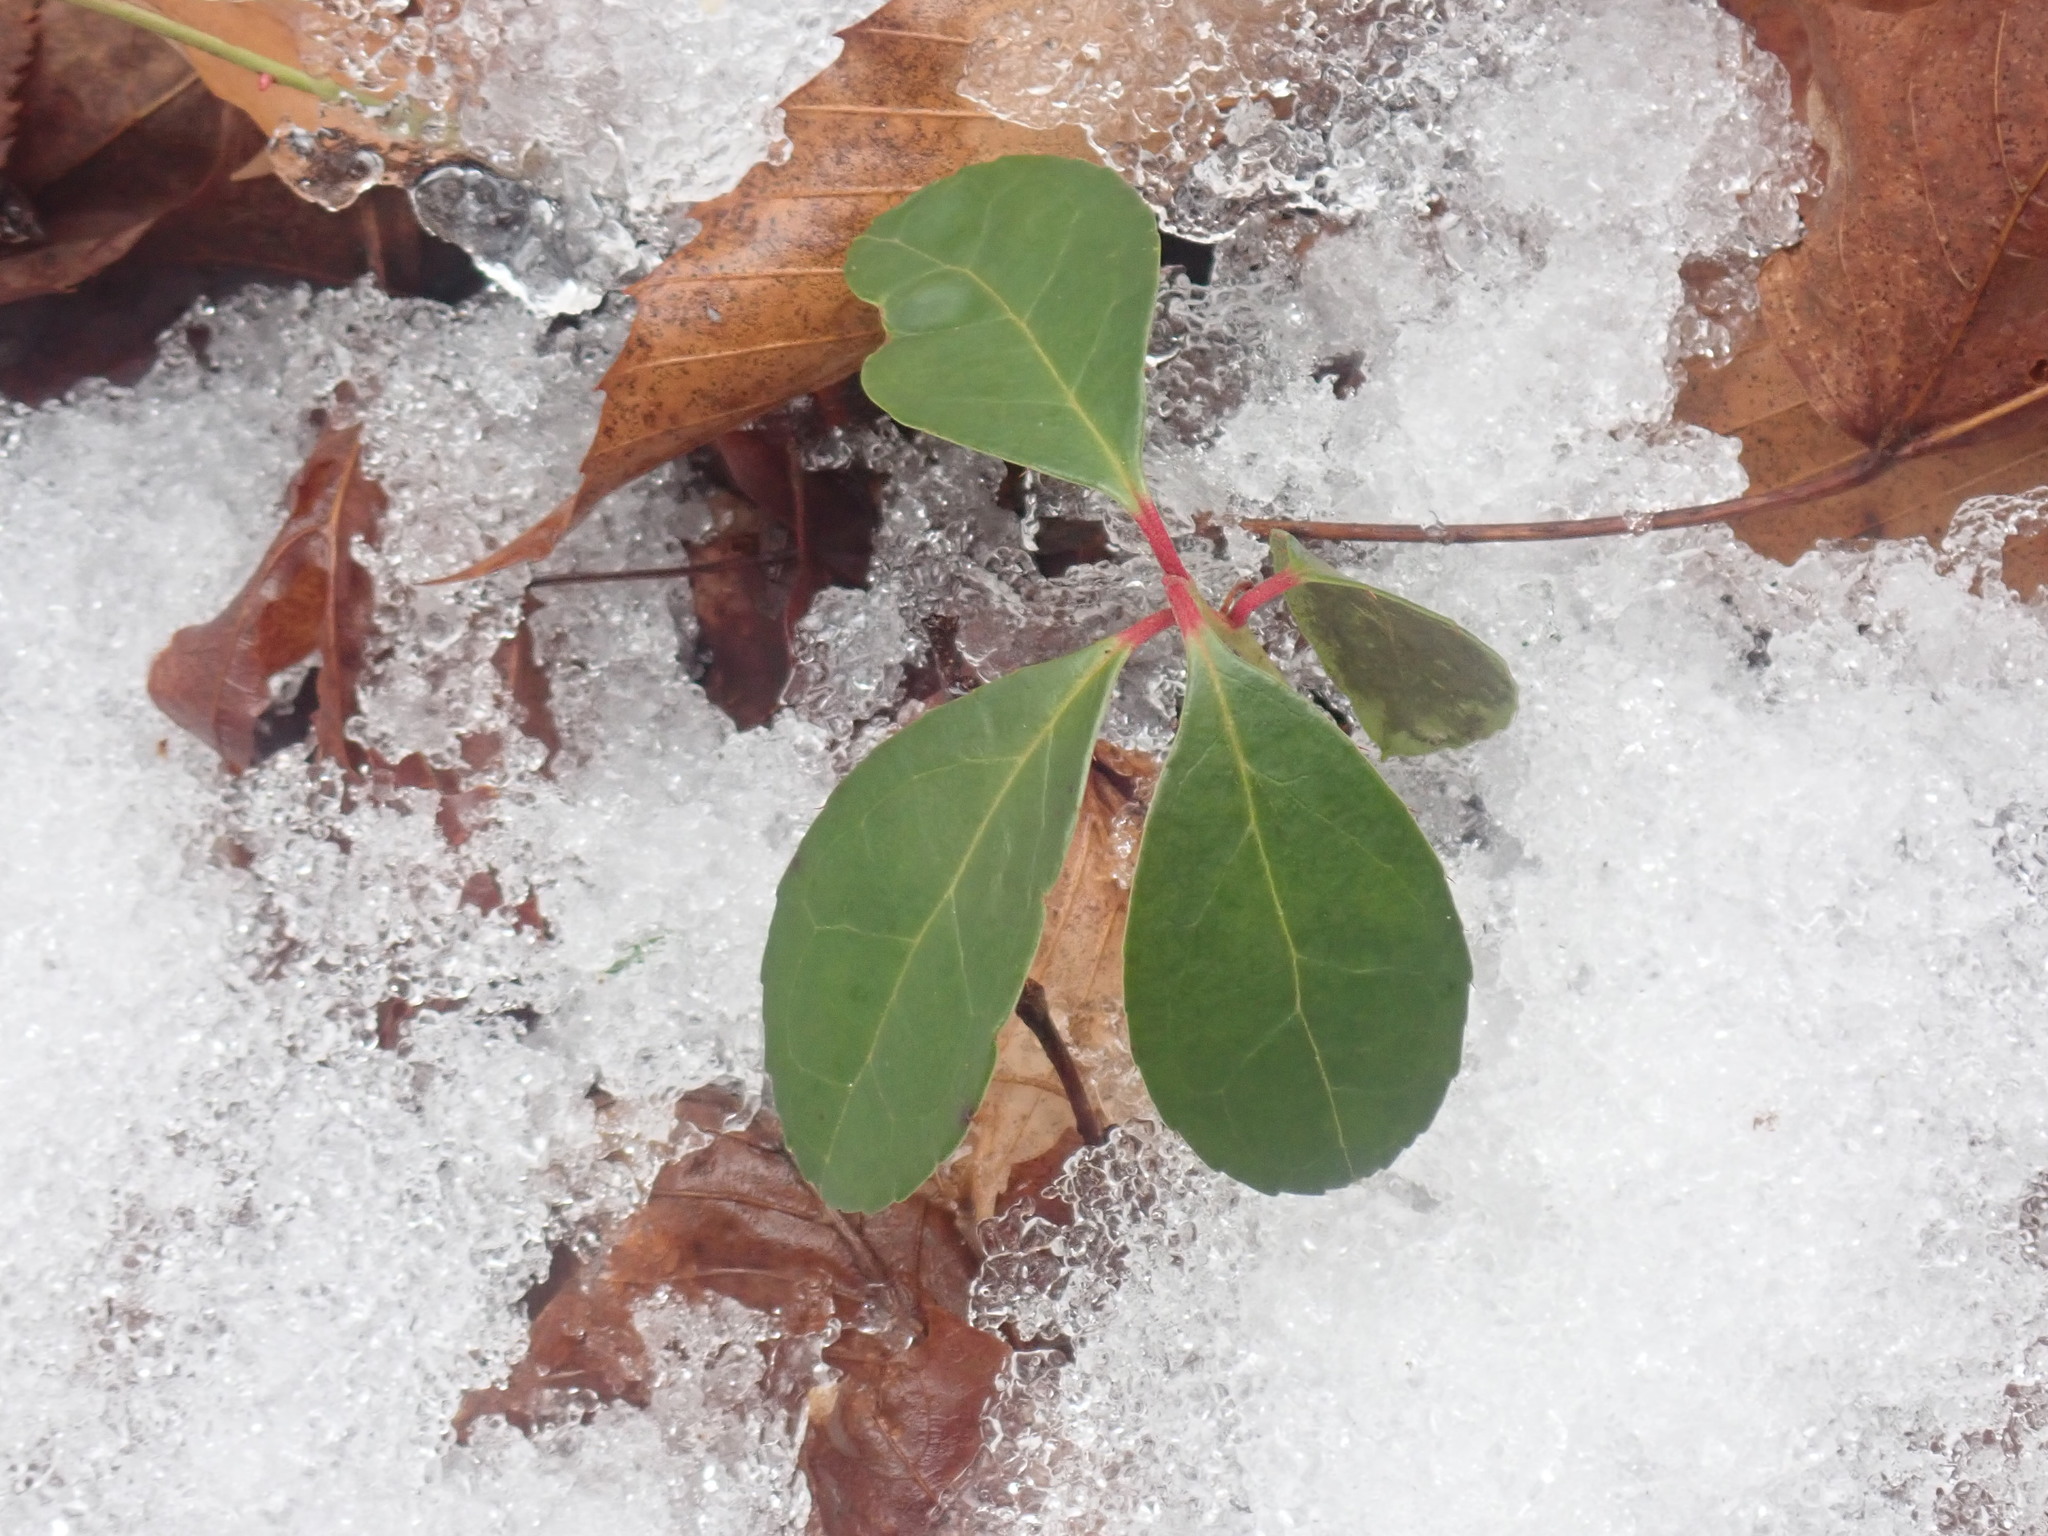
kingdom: Plantae
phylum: Tracheophyta
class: Magnoliopsida
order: Ericales
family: Ericaceae
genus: Gaultheria
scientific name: Gaultheria procumbens
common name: Checkerberry
